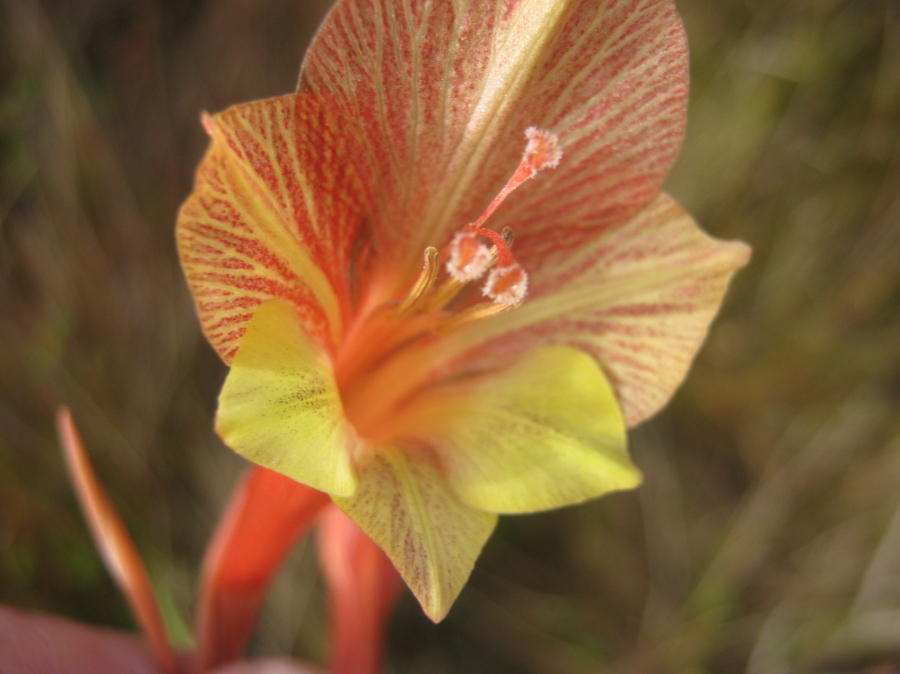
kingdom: Plantae
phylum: Tracheophyta
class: Liliopsida
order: Asparagales
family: Iridaceae
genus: Gladiolus
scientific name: Gladiolus fourcadei
